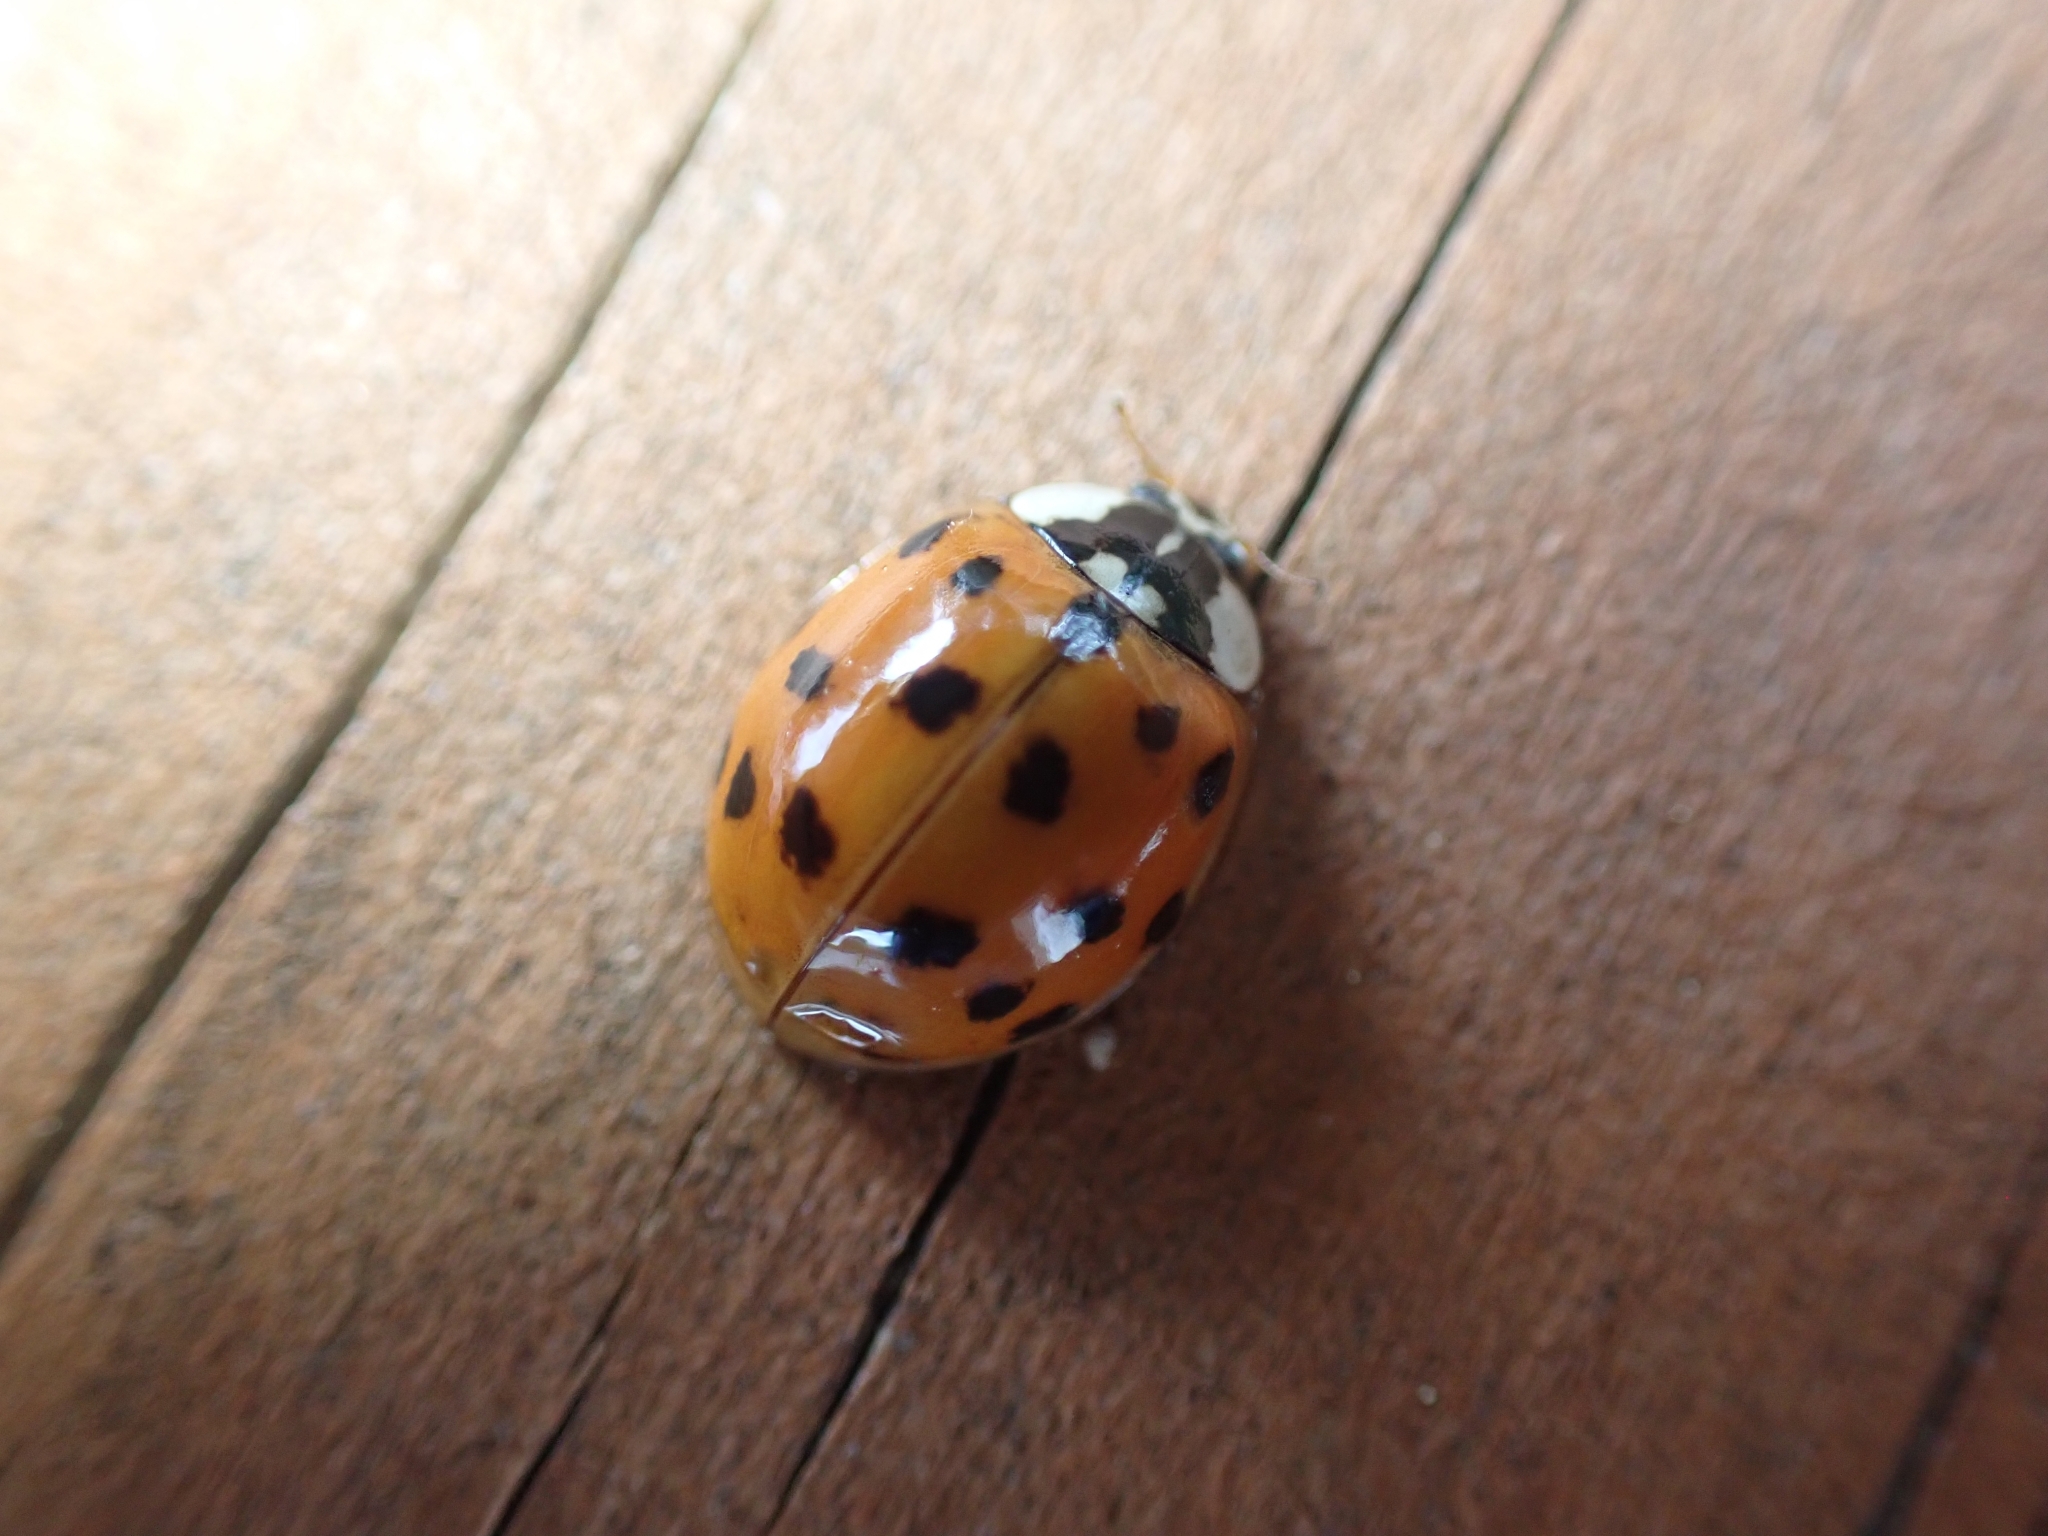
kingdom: Animalia
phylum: Arthropoda
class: Insecta
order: Coleoptera
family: Coccinellidae
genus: Harmonia
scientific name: Harmonia axyridis
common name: Harlequin ladybird
